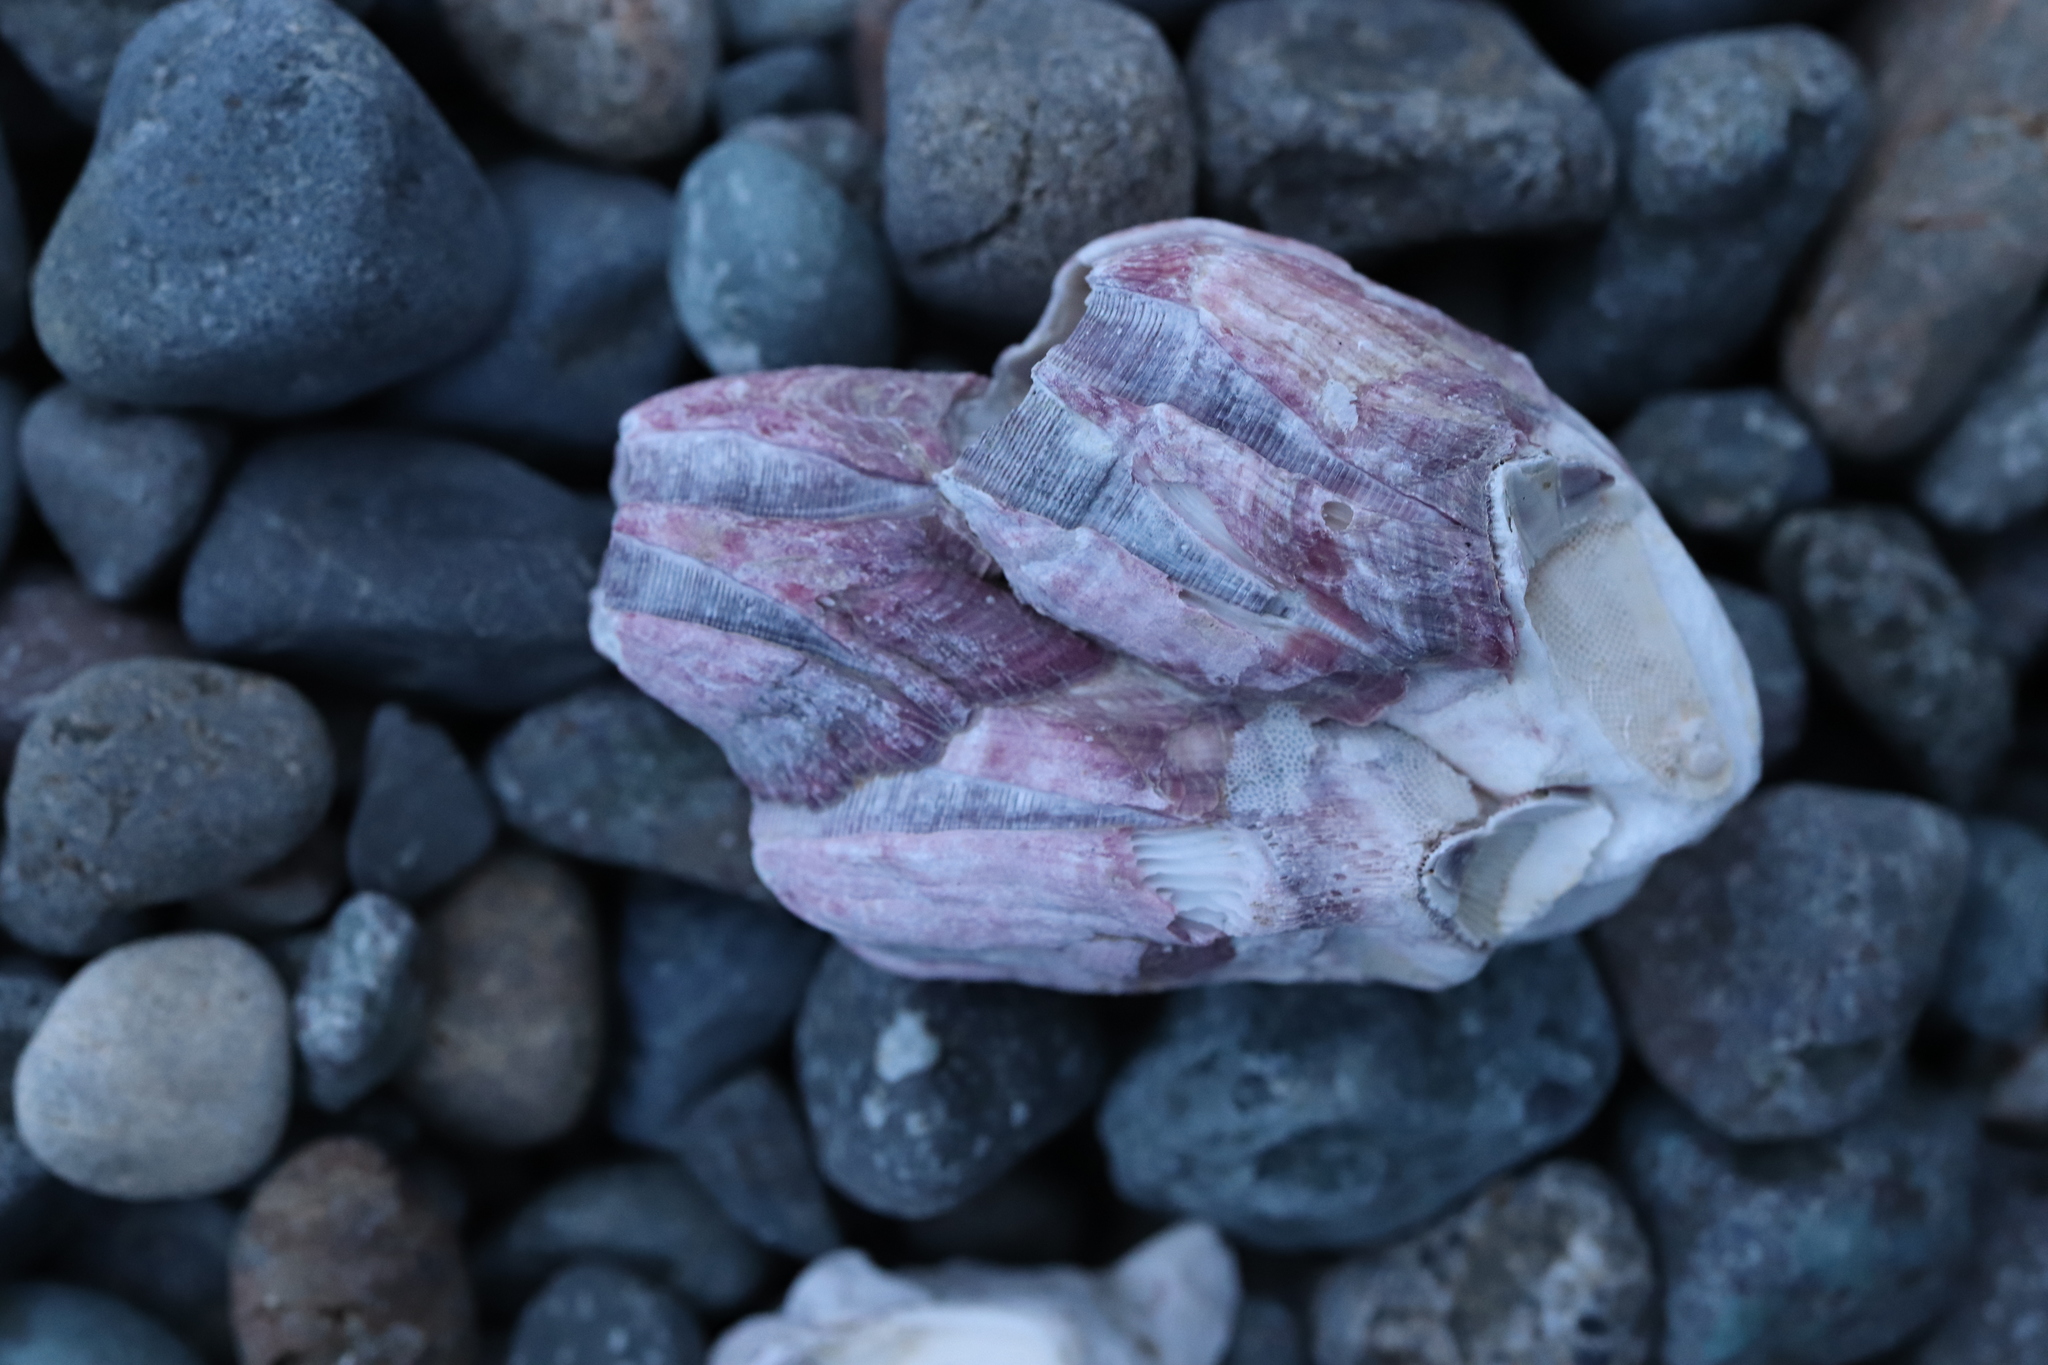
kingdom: Animalia
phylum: Arthropoda
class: Maxillopoda
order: Sessilia
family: Balanidae
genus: Megabalanus
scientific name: Megabalanus tintinnabulum
